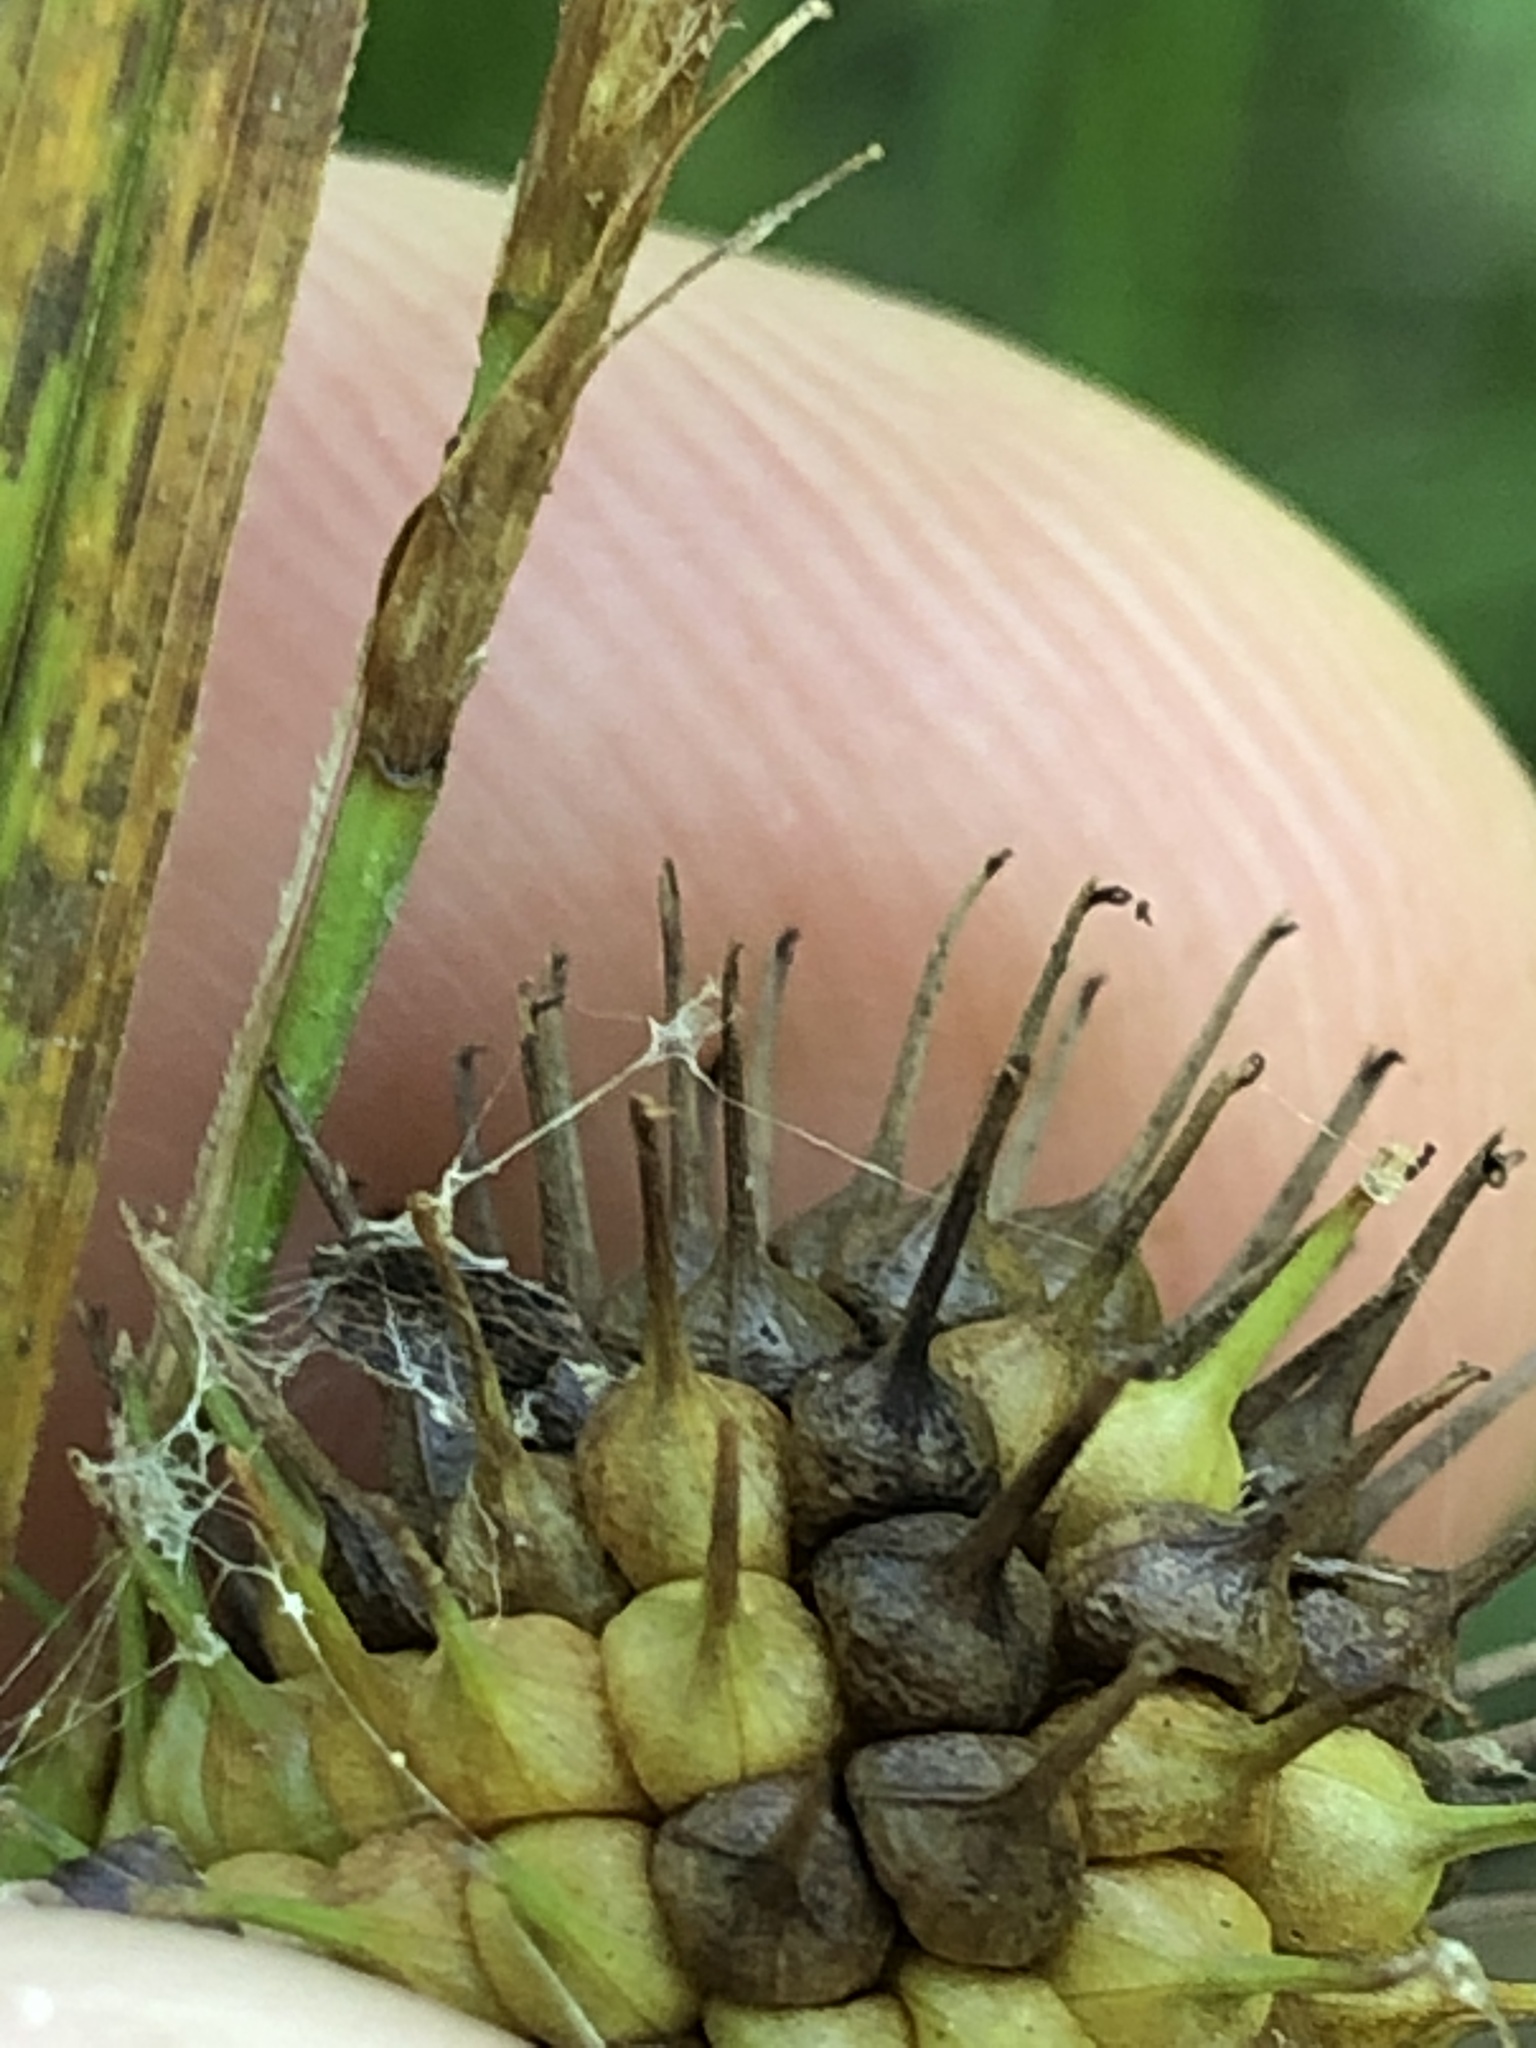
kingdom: Plantae
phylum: Tracheophyta
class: Liliopsida
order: Poales
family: Cyperaceae
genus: Carex
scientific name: Carex squarrosa
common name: Narrow-leaved cattail sedge
